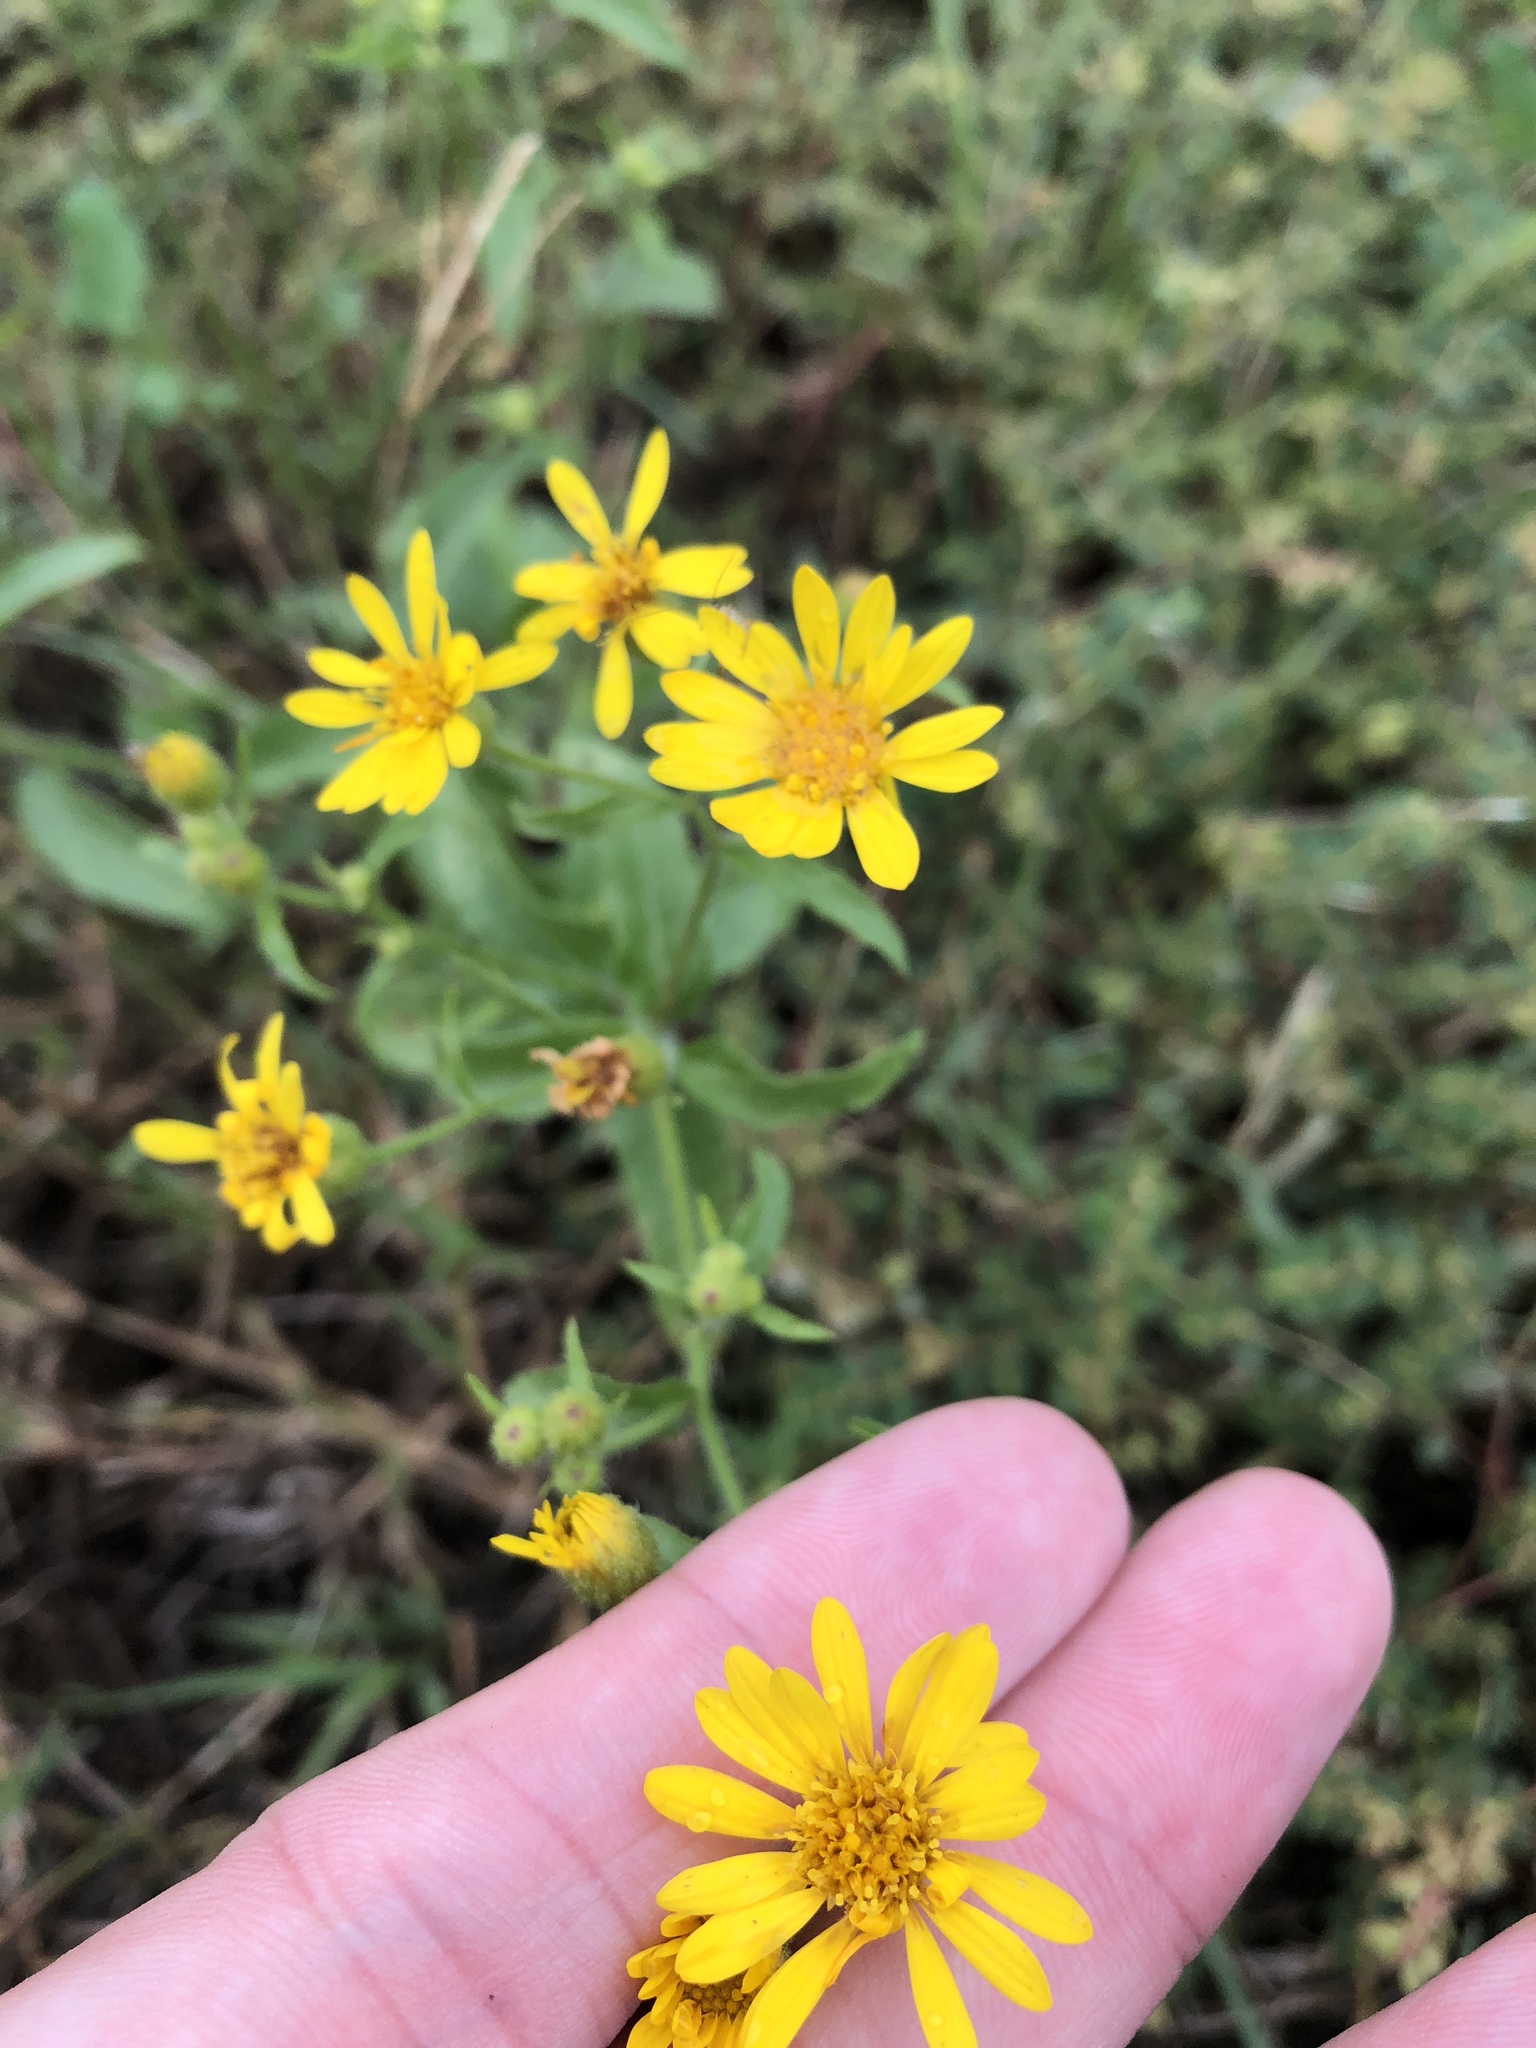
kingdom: Plantae
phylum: Tracheophyta
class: Magnoliopsida
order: Asterales
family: Asteraceae
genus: Heterotheca
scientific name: Heterotheca subaxillaris
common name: Camphorweed
